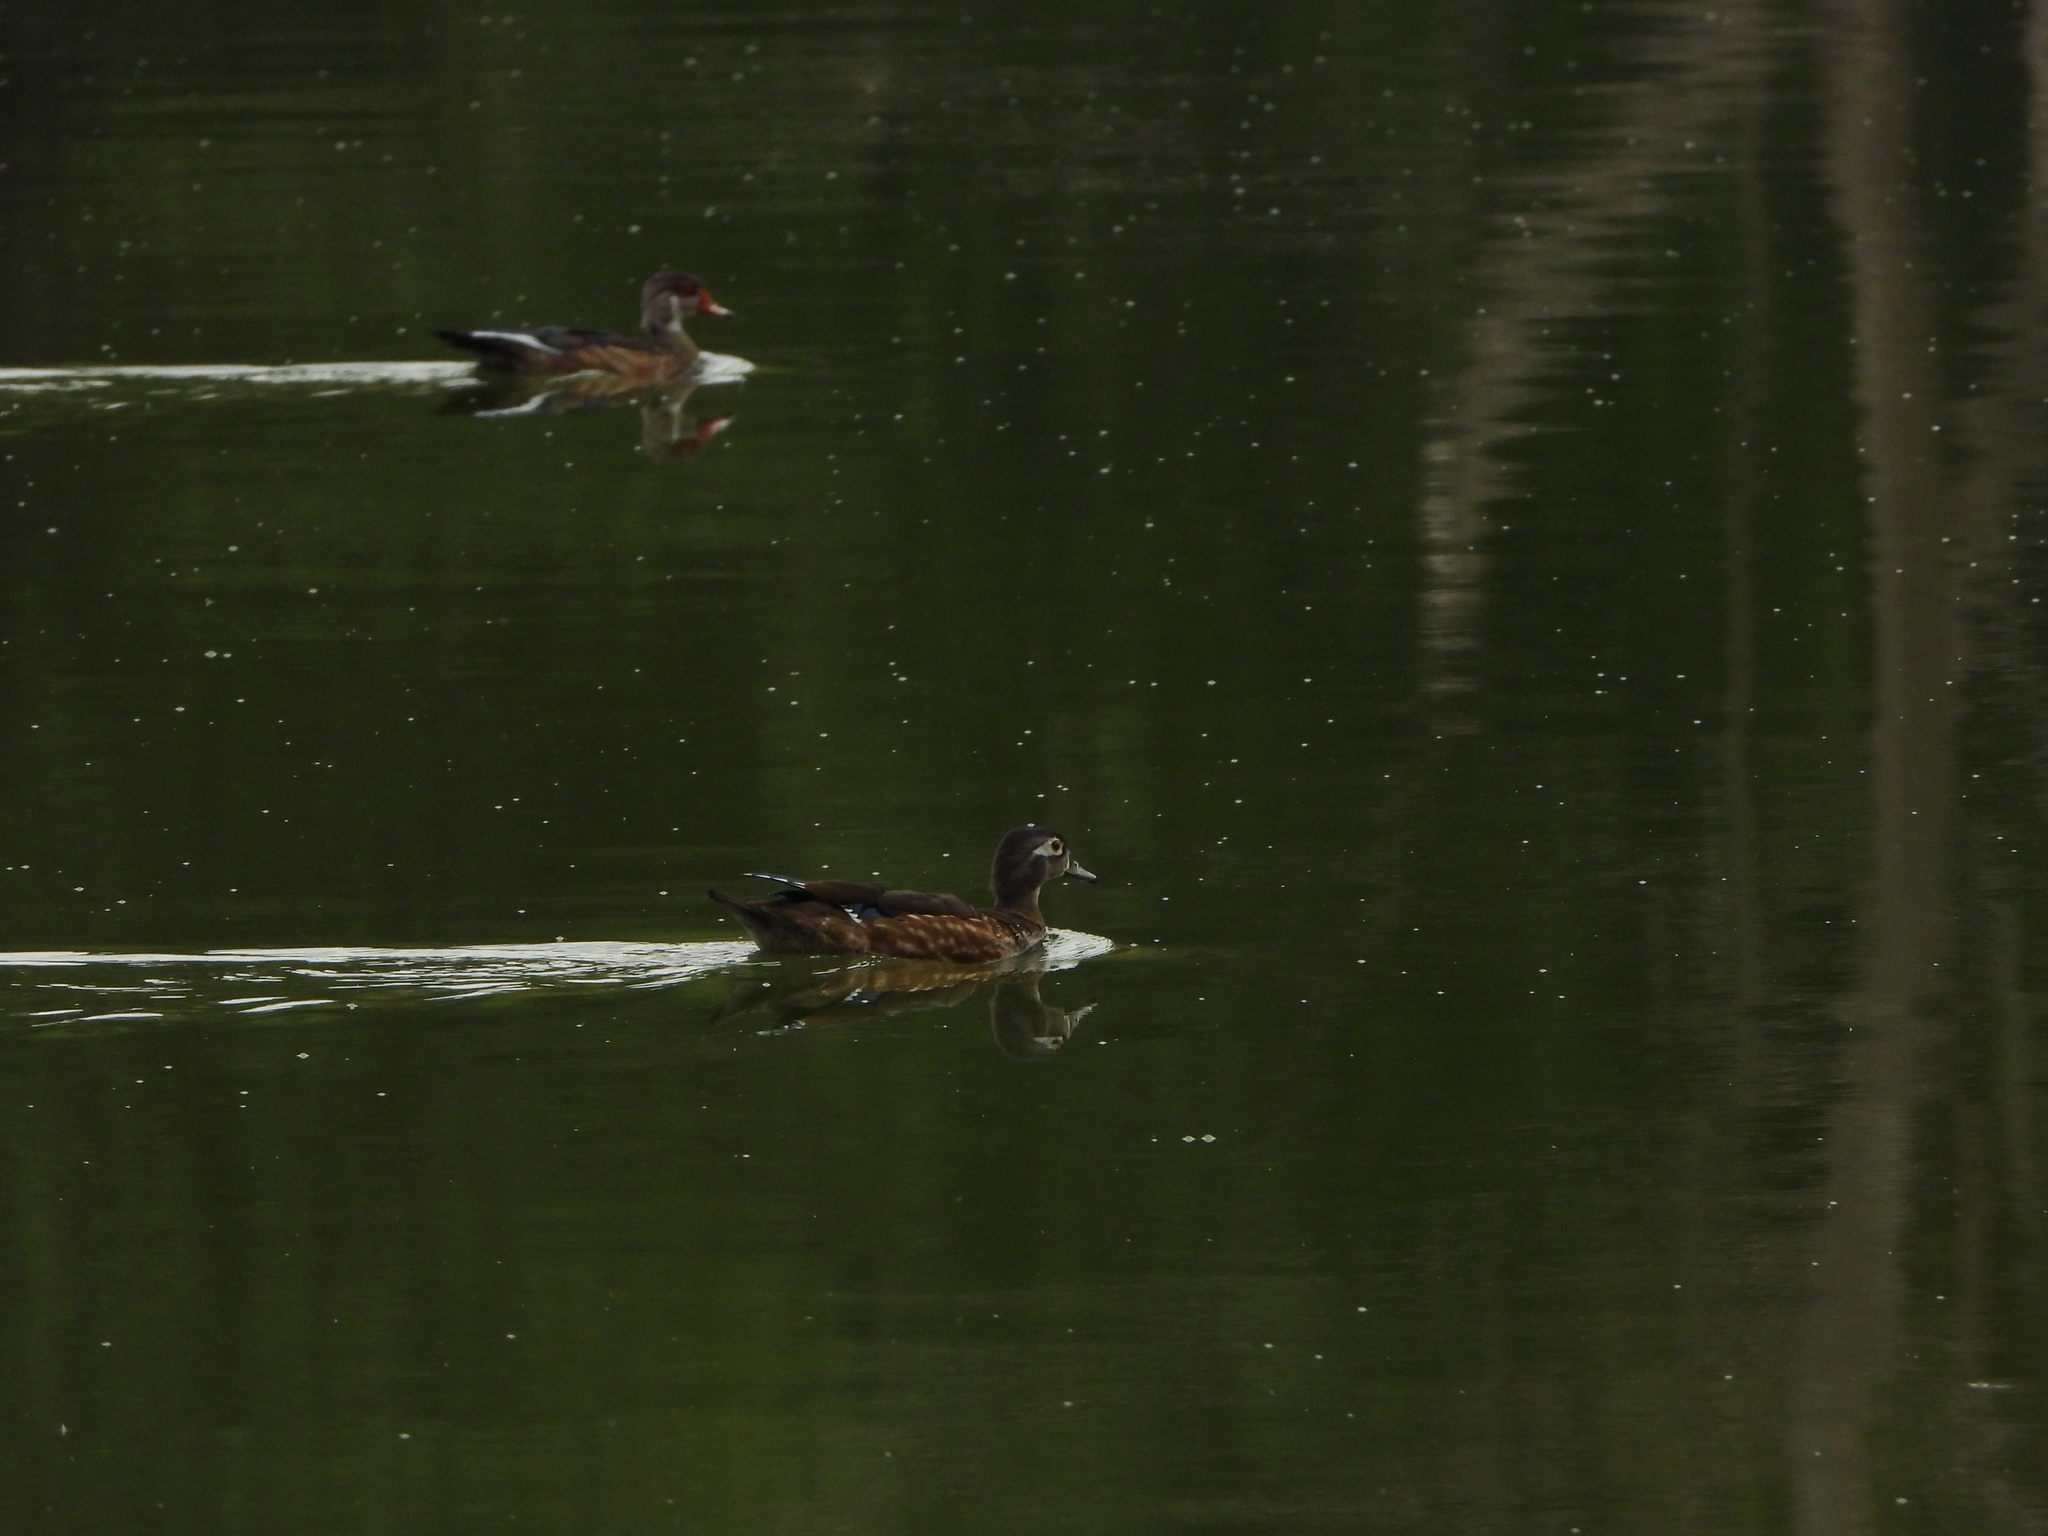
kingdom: Animalia
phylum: Chordata
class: Aves
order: Anseriformes
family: Anatidae
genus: Aix
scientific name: Aix sponsa
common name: Wood duck
